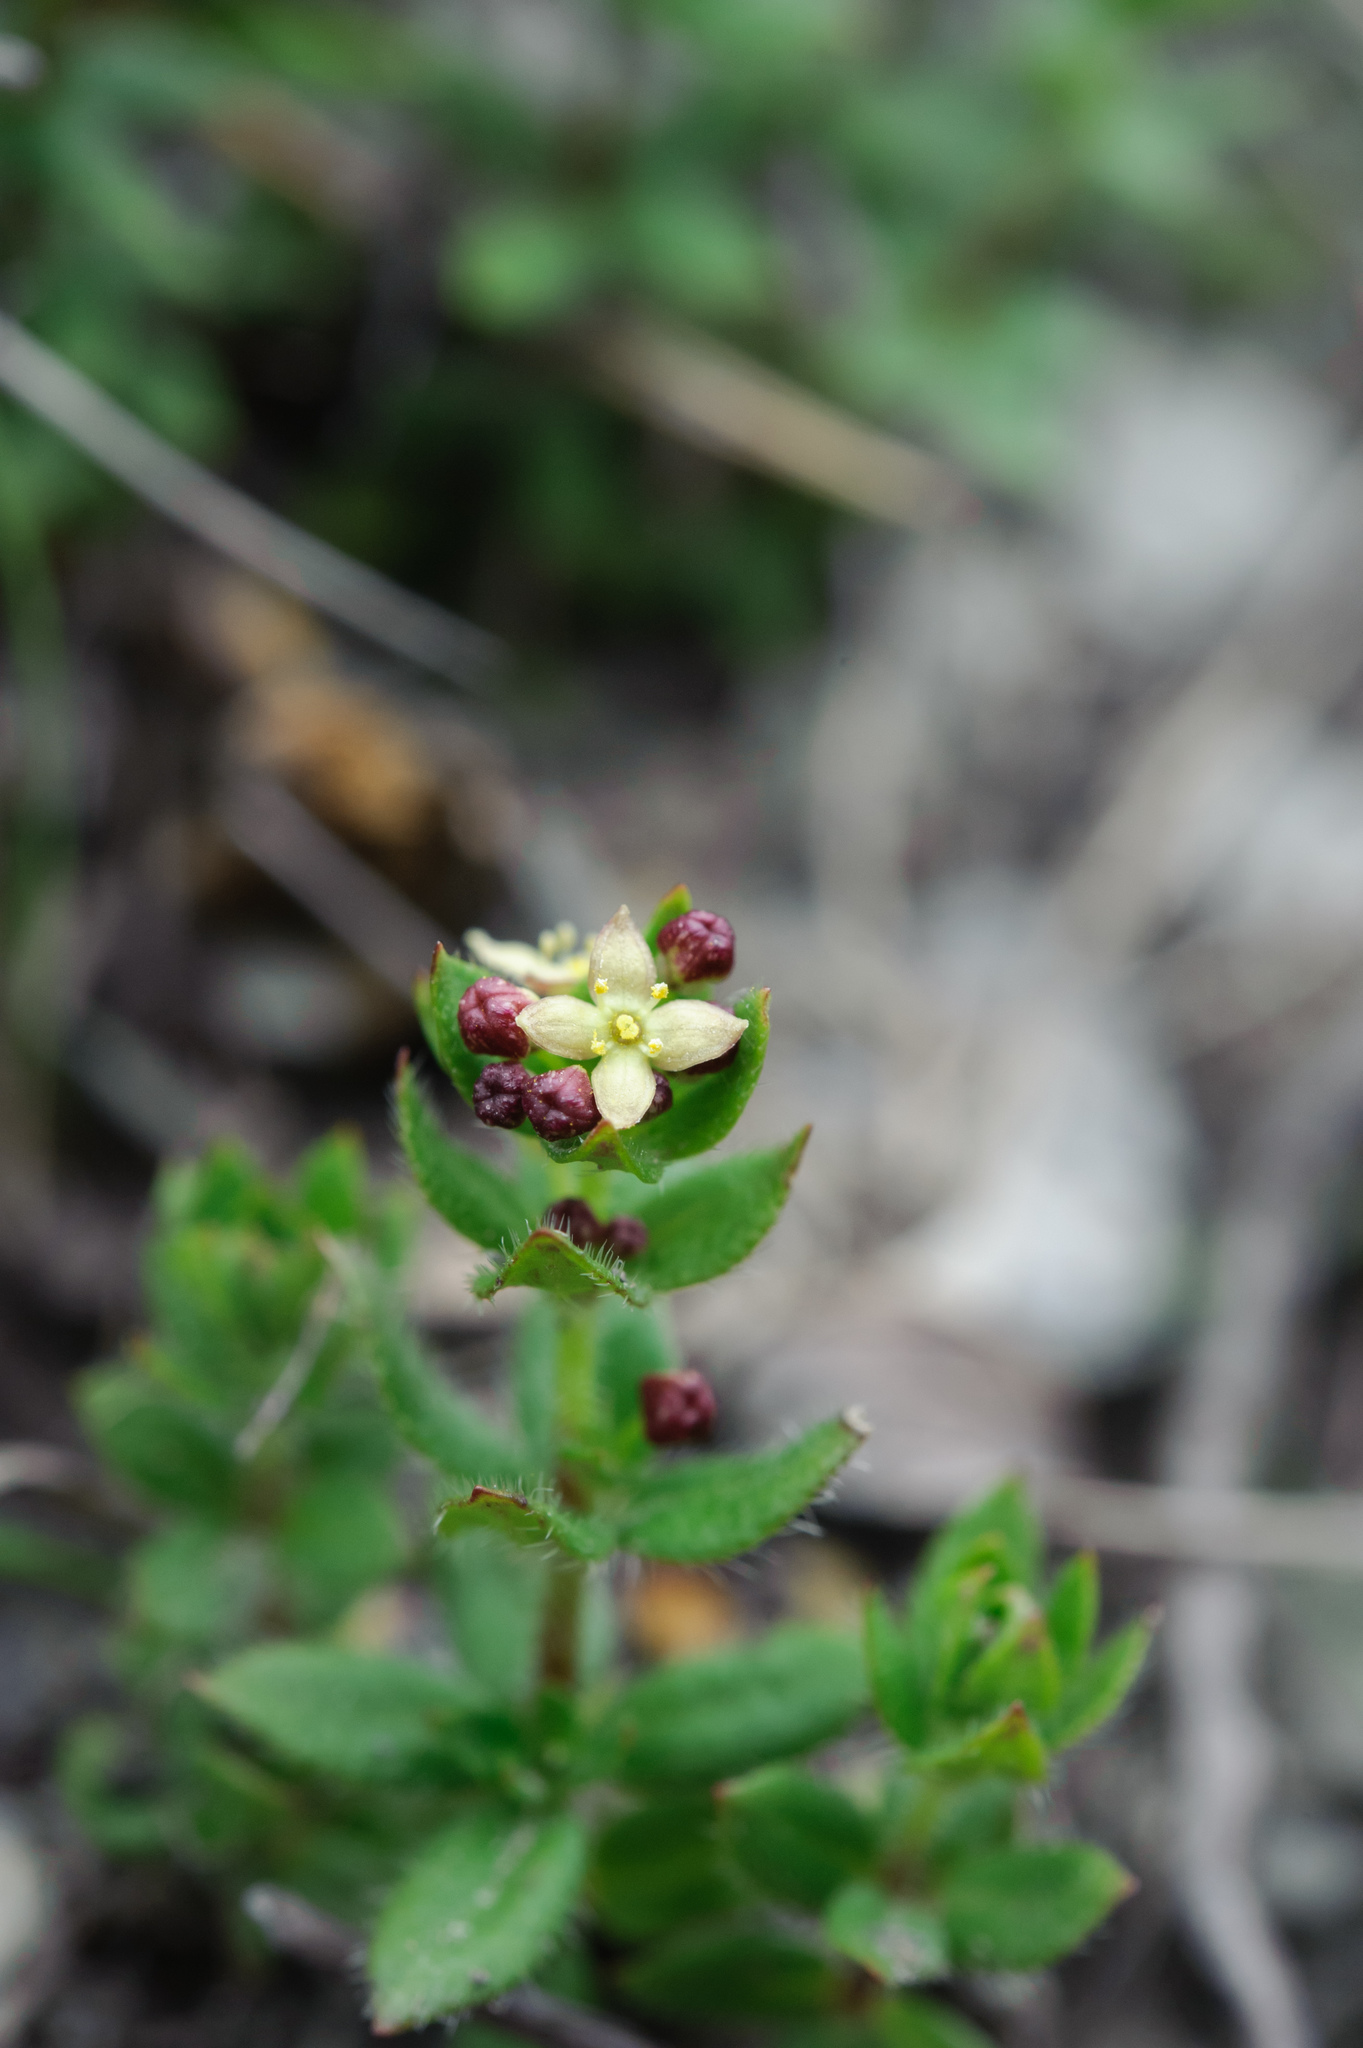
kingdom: Plantae
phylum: Tracheophyta
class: Magnoliopsida
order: Gentianales
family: Rubiaceae
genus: Galium
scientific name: Galium nankotaizanum
